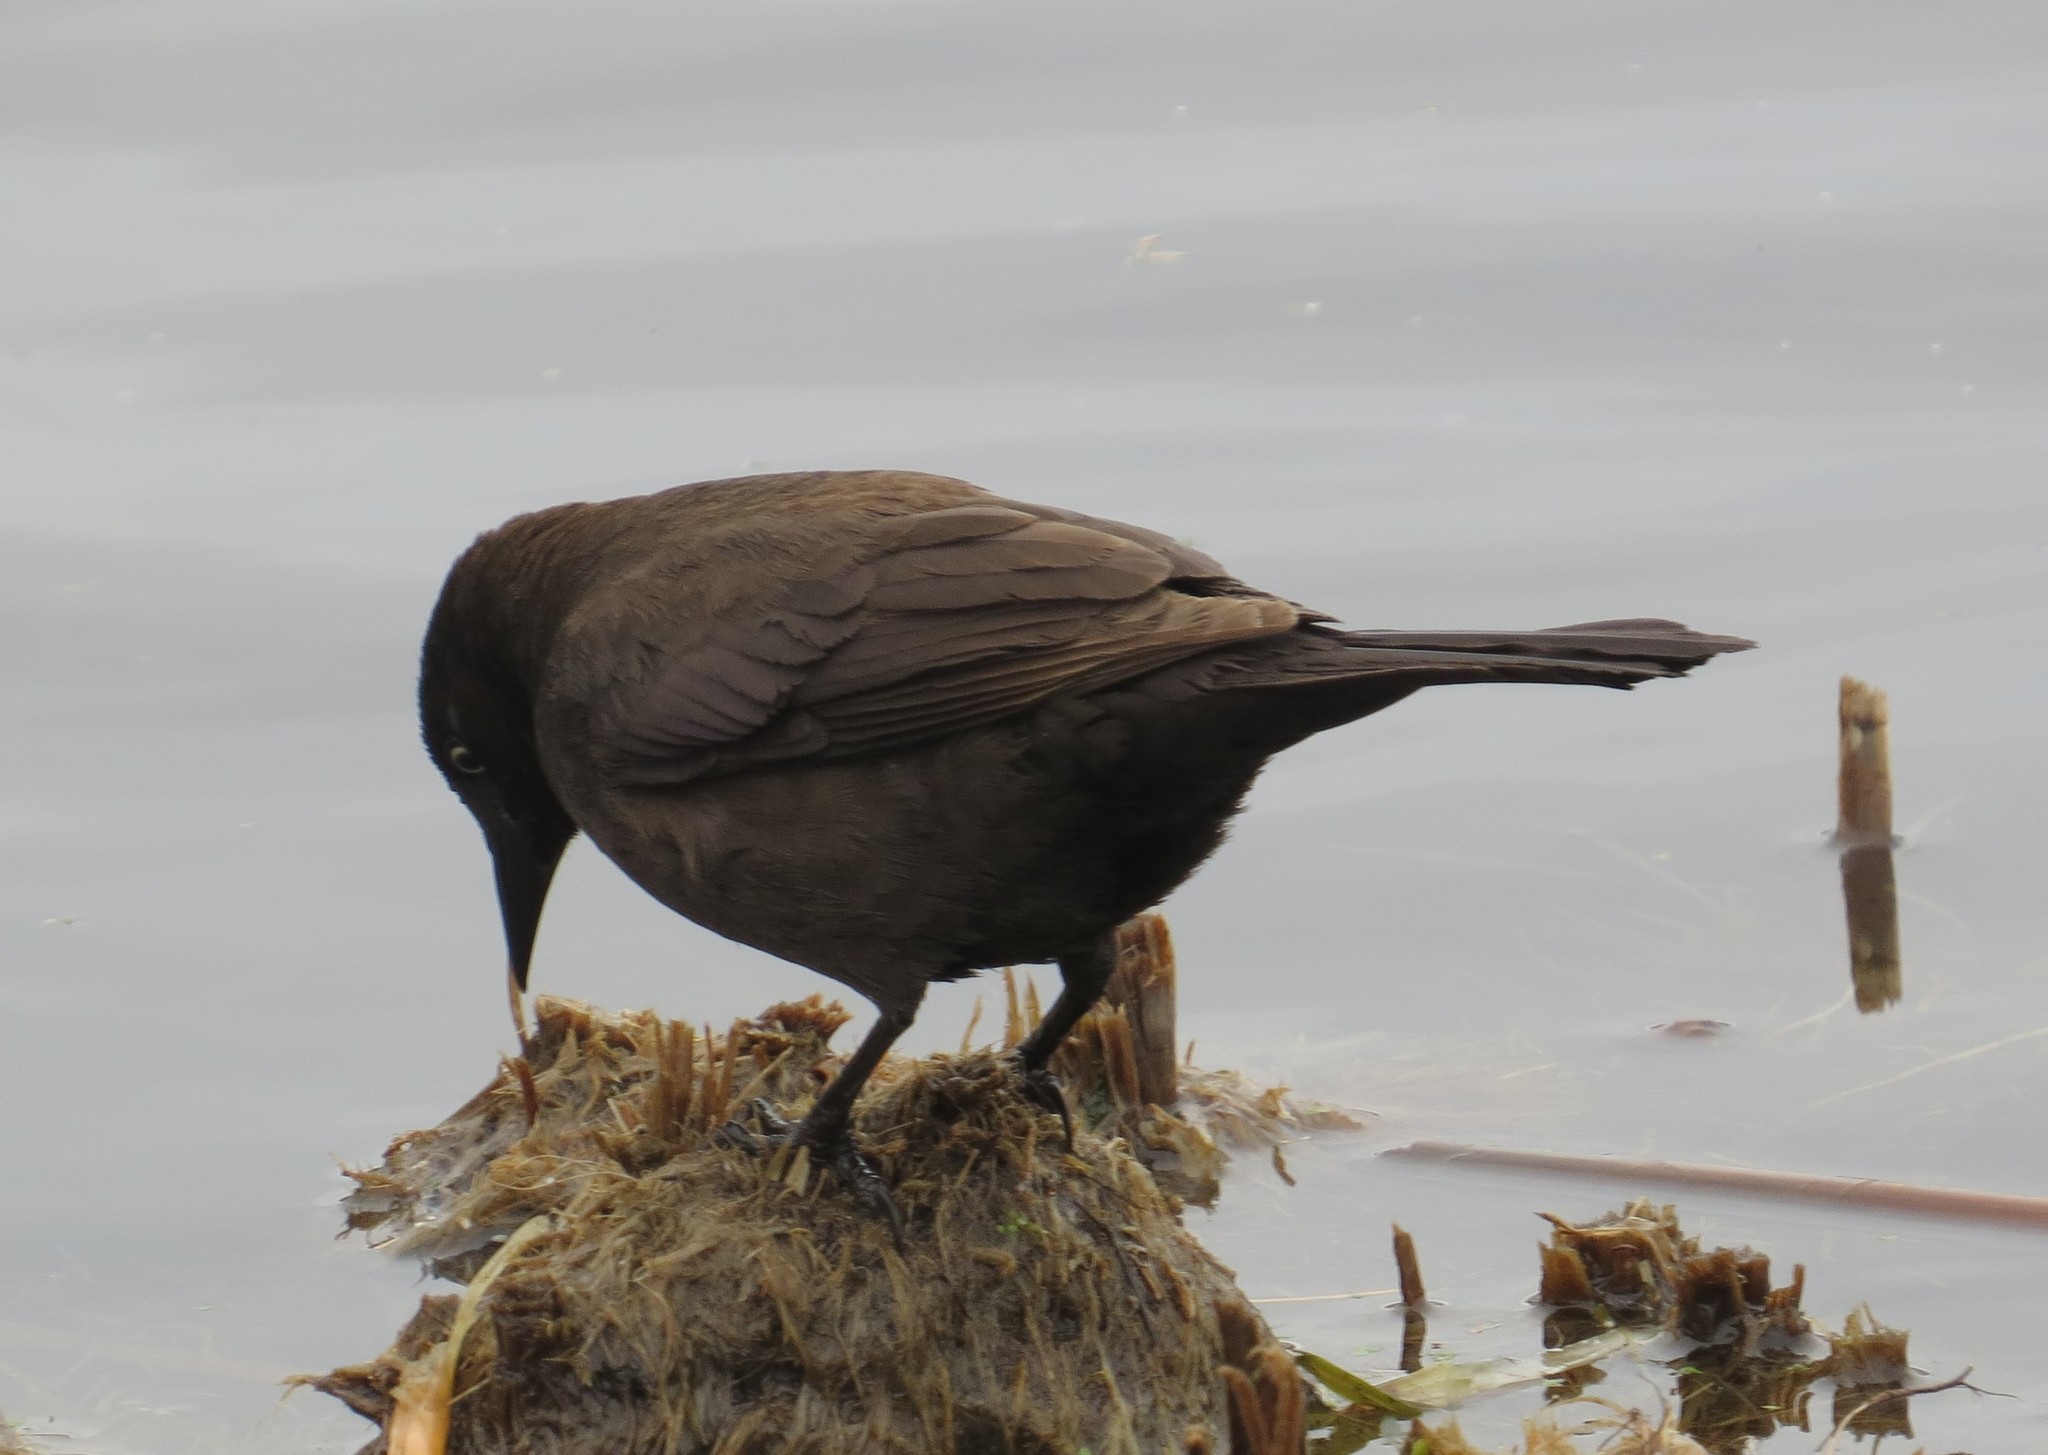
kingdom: Animalia
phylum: Chordata
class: Aves
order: Passeriformes
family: Icteridae
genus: Quiscalus
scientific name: Quiscalus quiscula
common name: Common grackle
